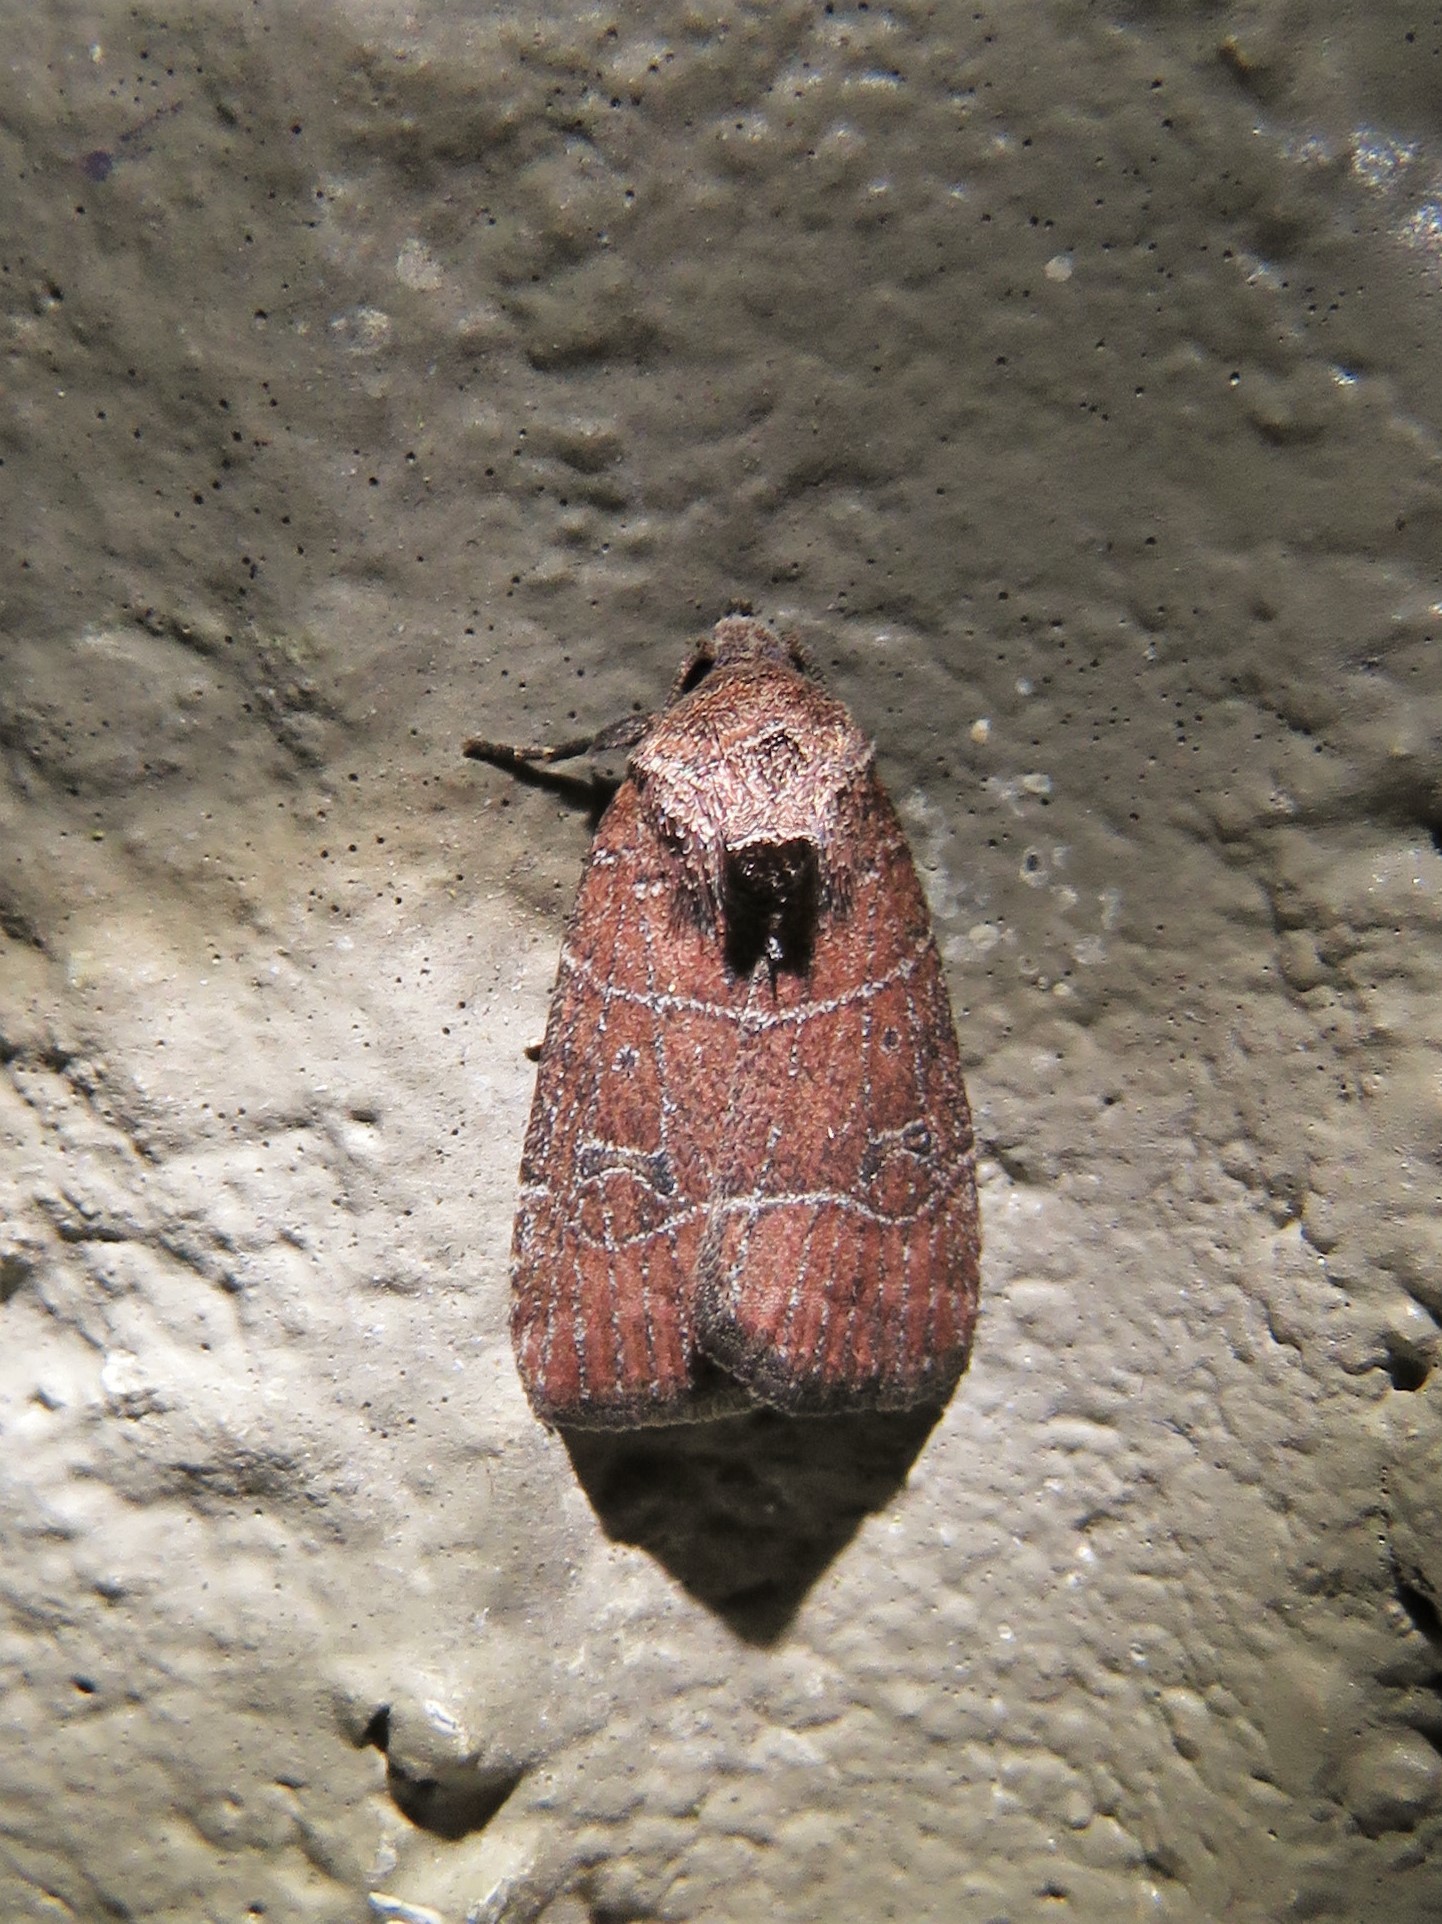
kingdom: Animalia
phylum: Arthropoda
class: Insecta
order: Lepidoptera
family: Noctuidae
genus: Elaphria
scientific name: Elaphria grata
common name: Grateful midget moth
